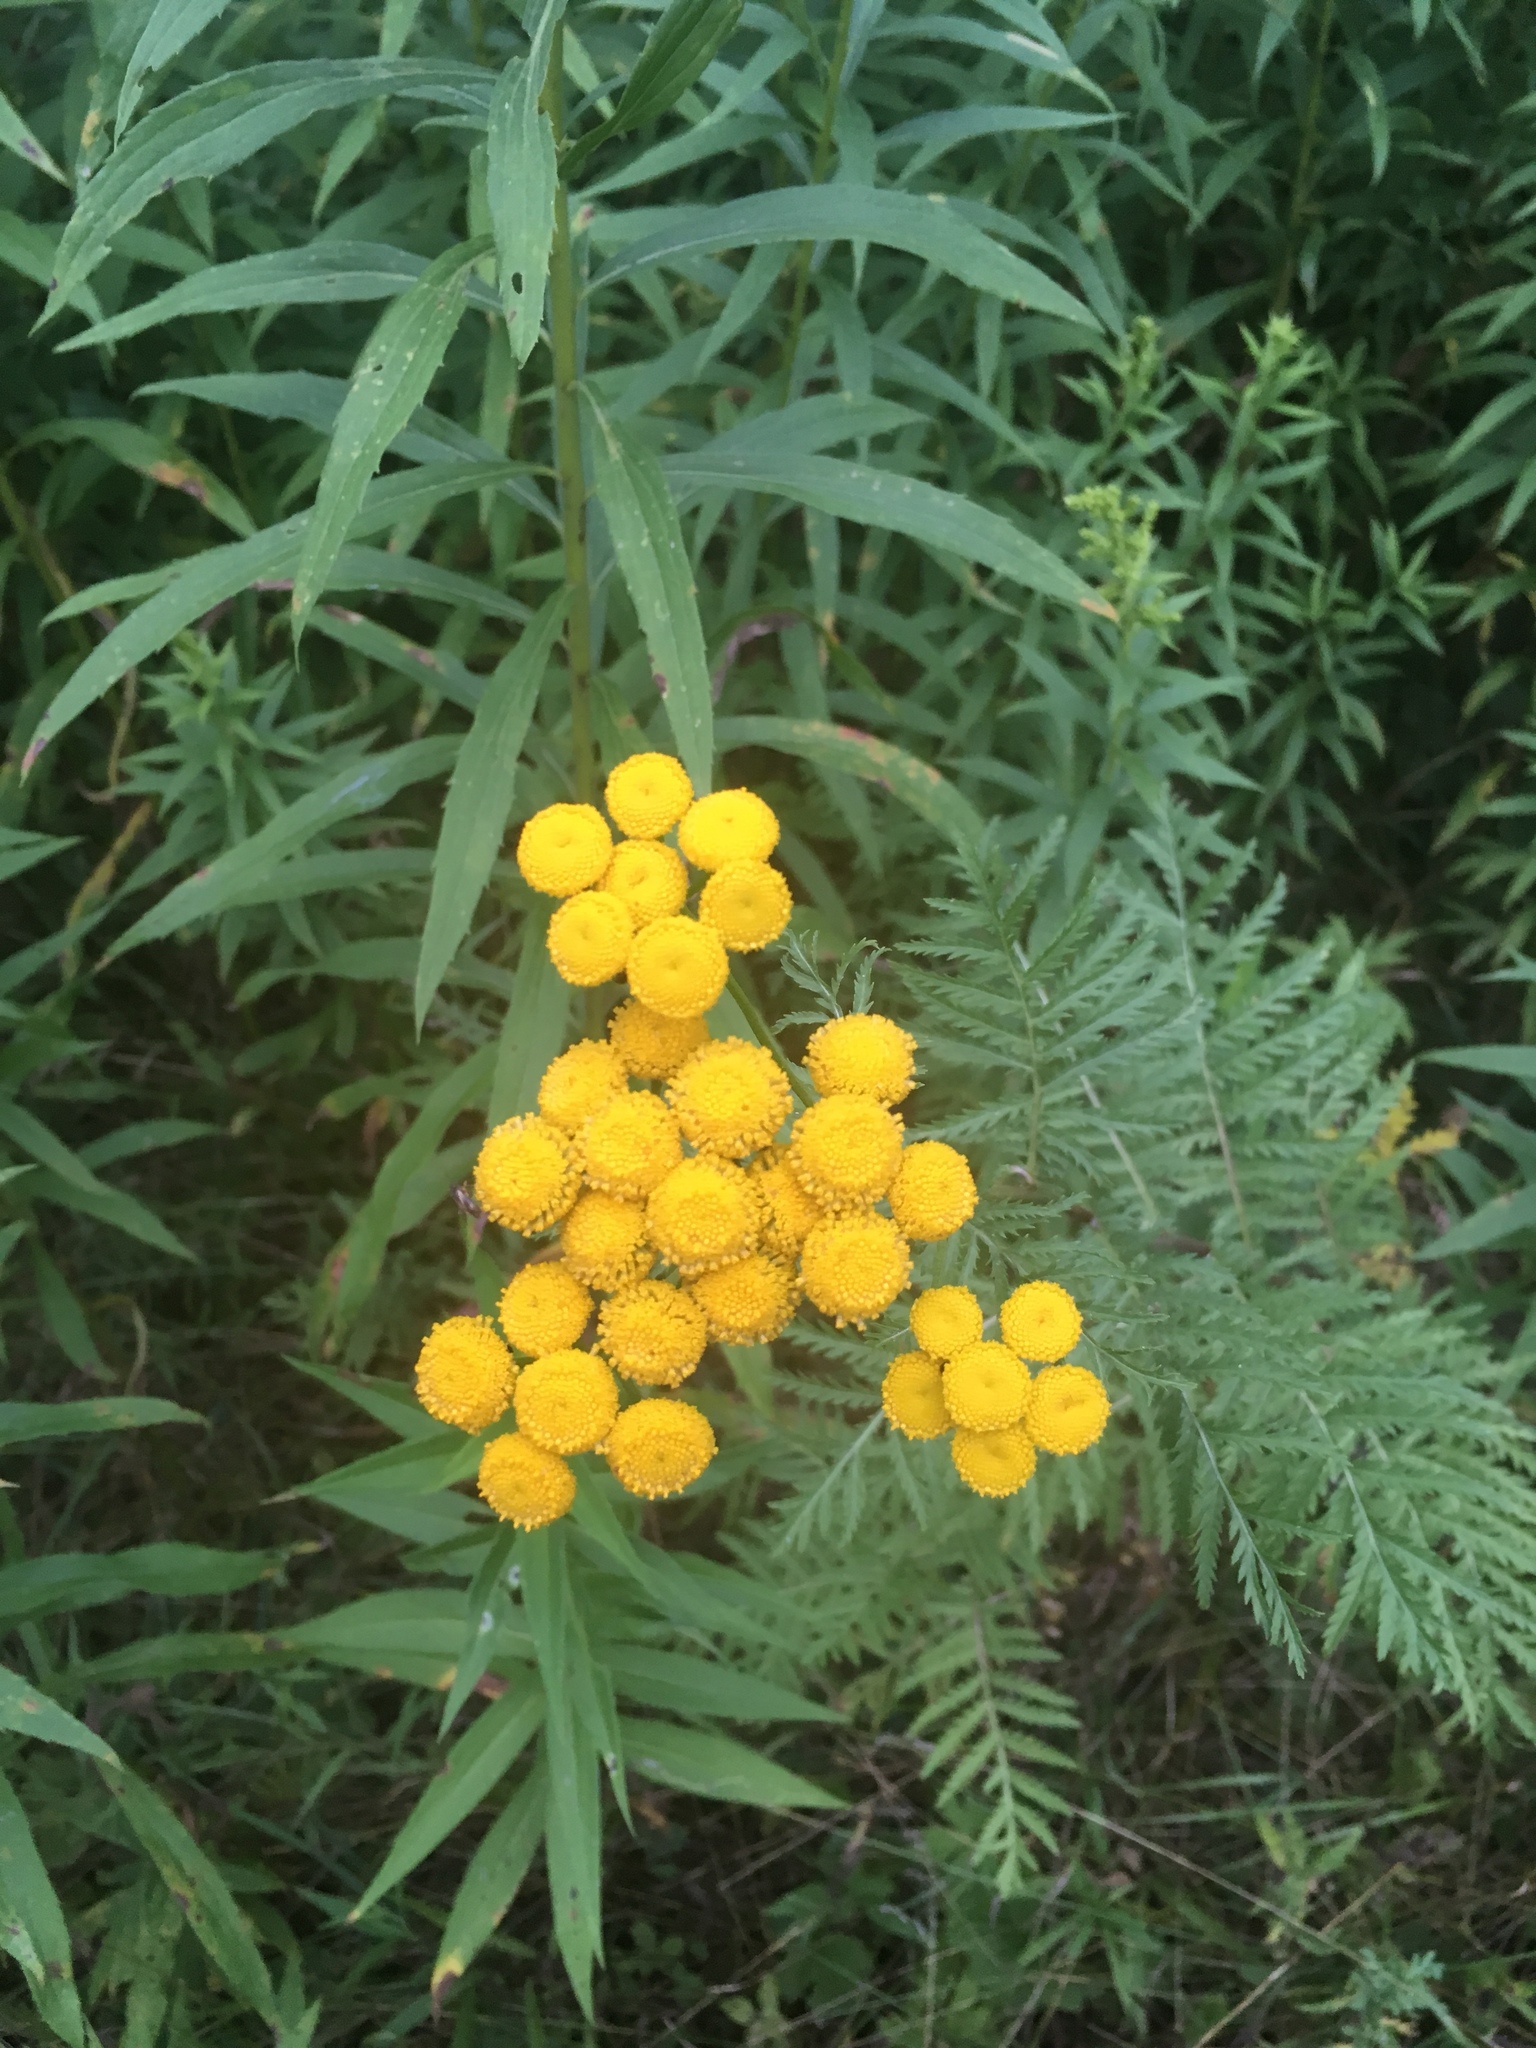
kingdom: Plantae
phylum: Tracheophyta
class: Magnoliopsida
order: Asterales
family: Asteraceae
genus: Tanacetum
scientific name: Tanacetum vulgare
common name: Common tansy
